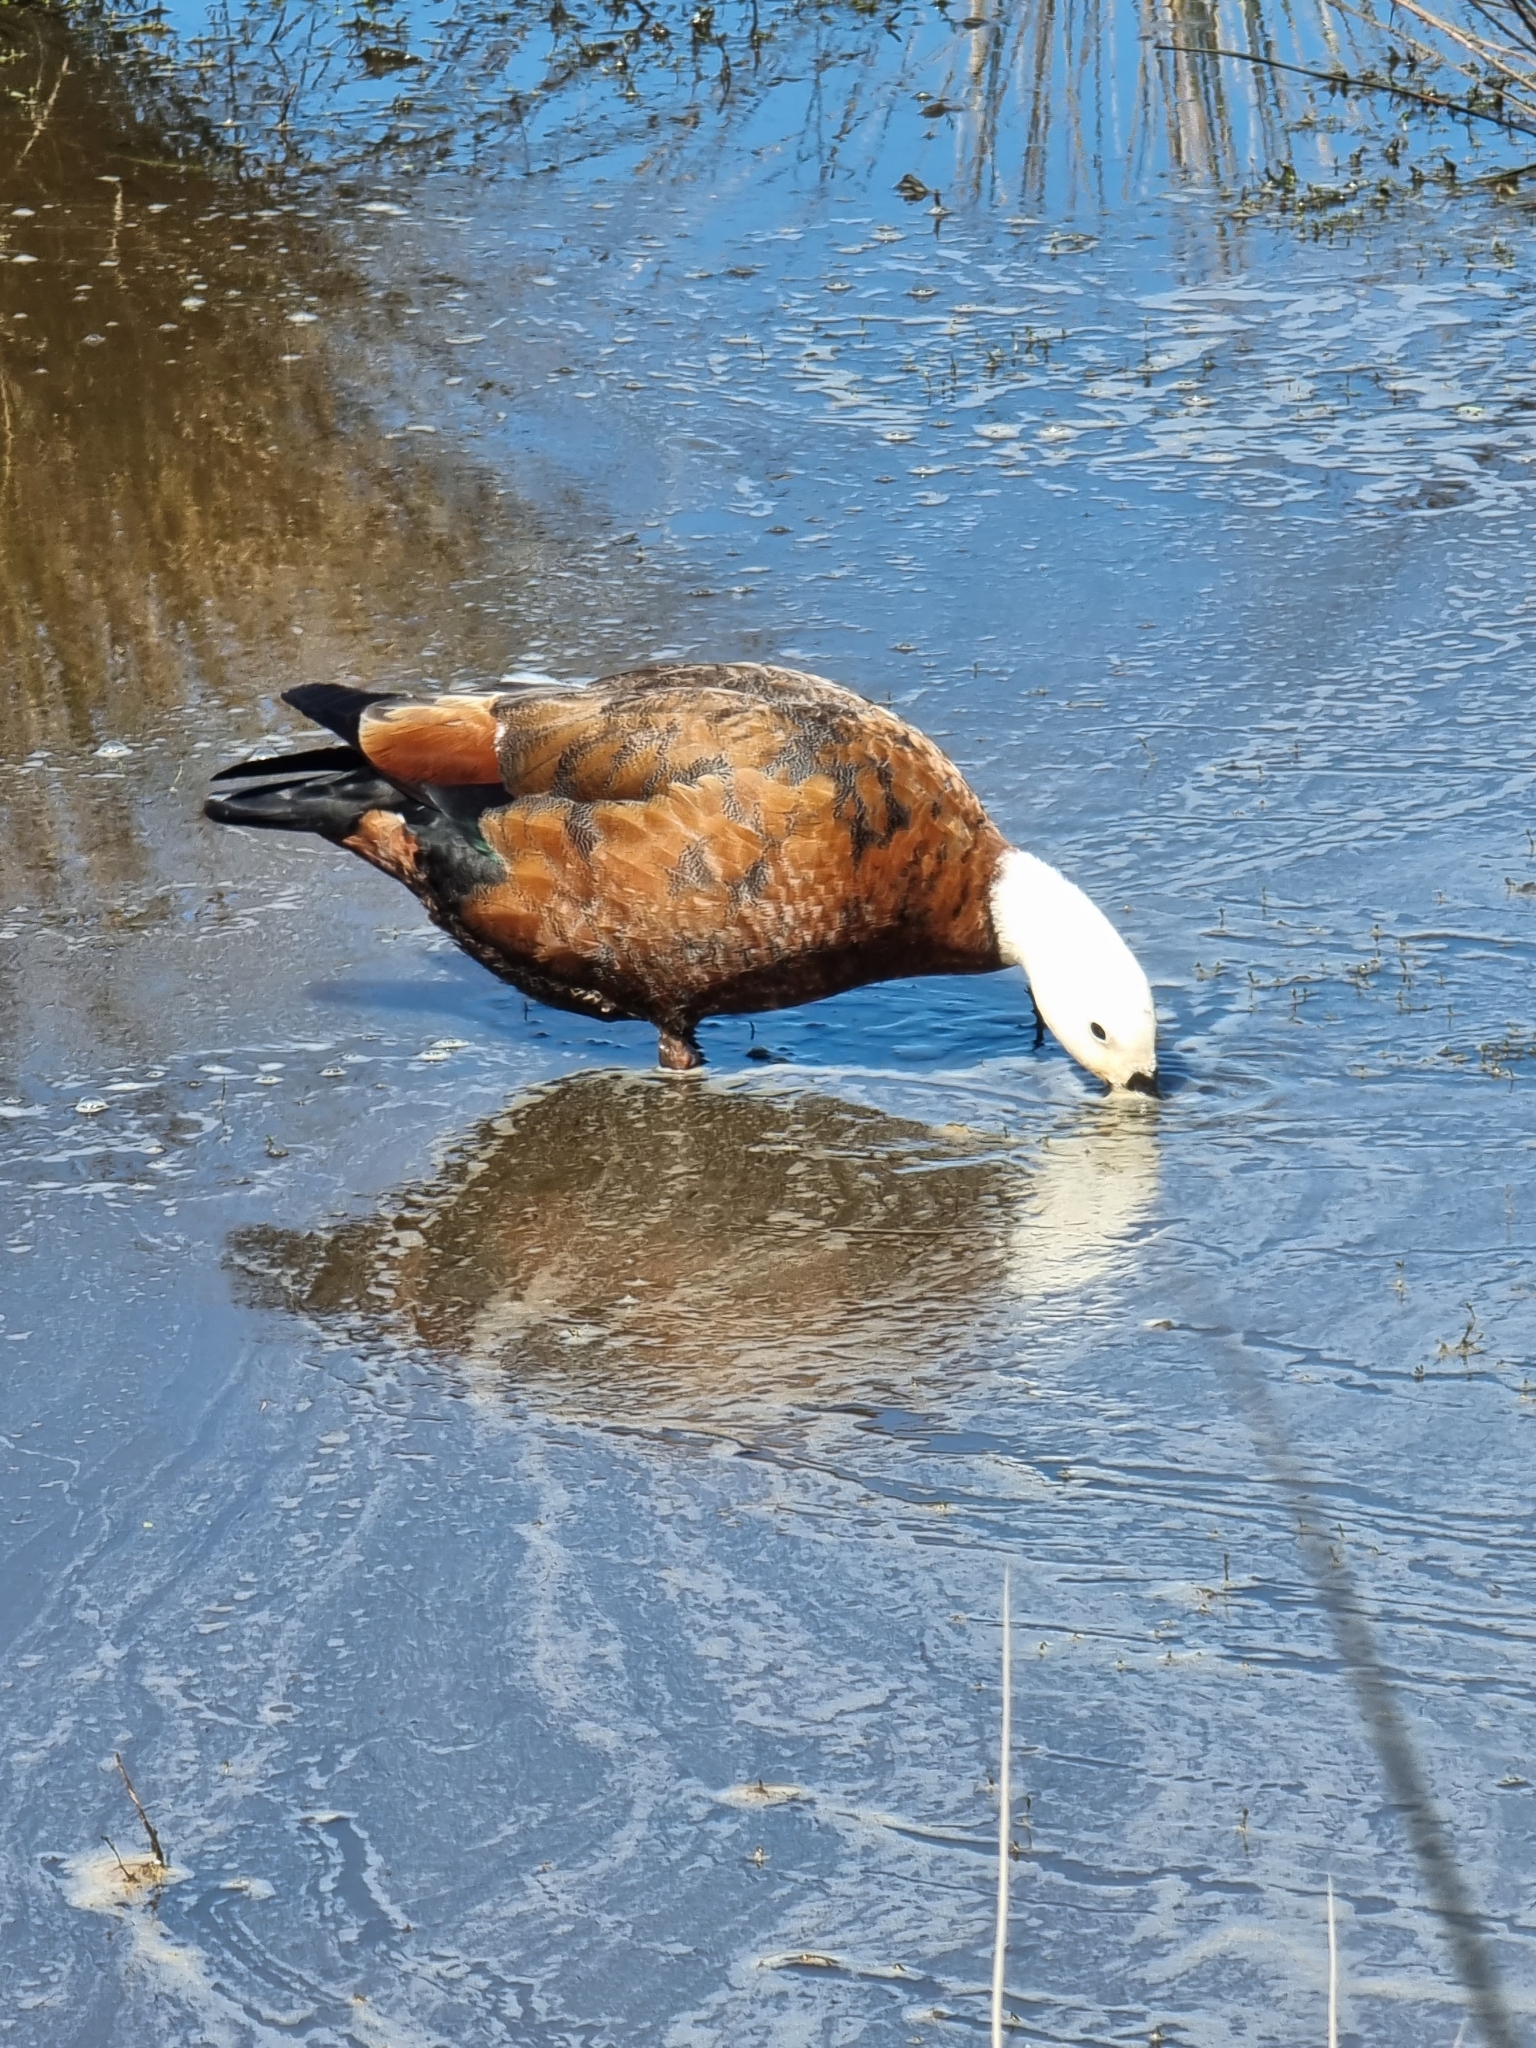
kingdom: Animalia
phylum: Chordata
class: Aves
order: Anseriformes
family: Anatidae
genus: Tadorna
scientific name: Tadorna variegata
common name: Paradise shelduck
